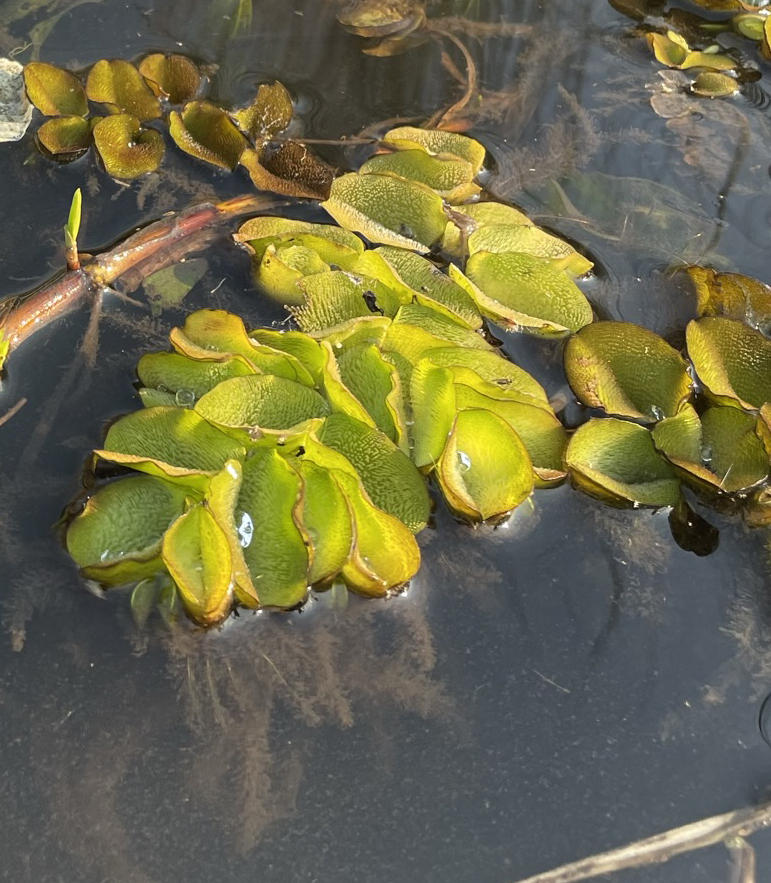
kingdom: Plantae
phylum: Tracheophyta
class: Polypodiopsida
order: Salviniales
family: Salviniaceae
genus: Salvinia
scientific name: Salvinia molesta
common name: Kariba weed
